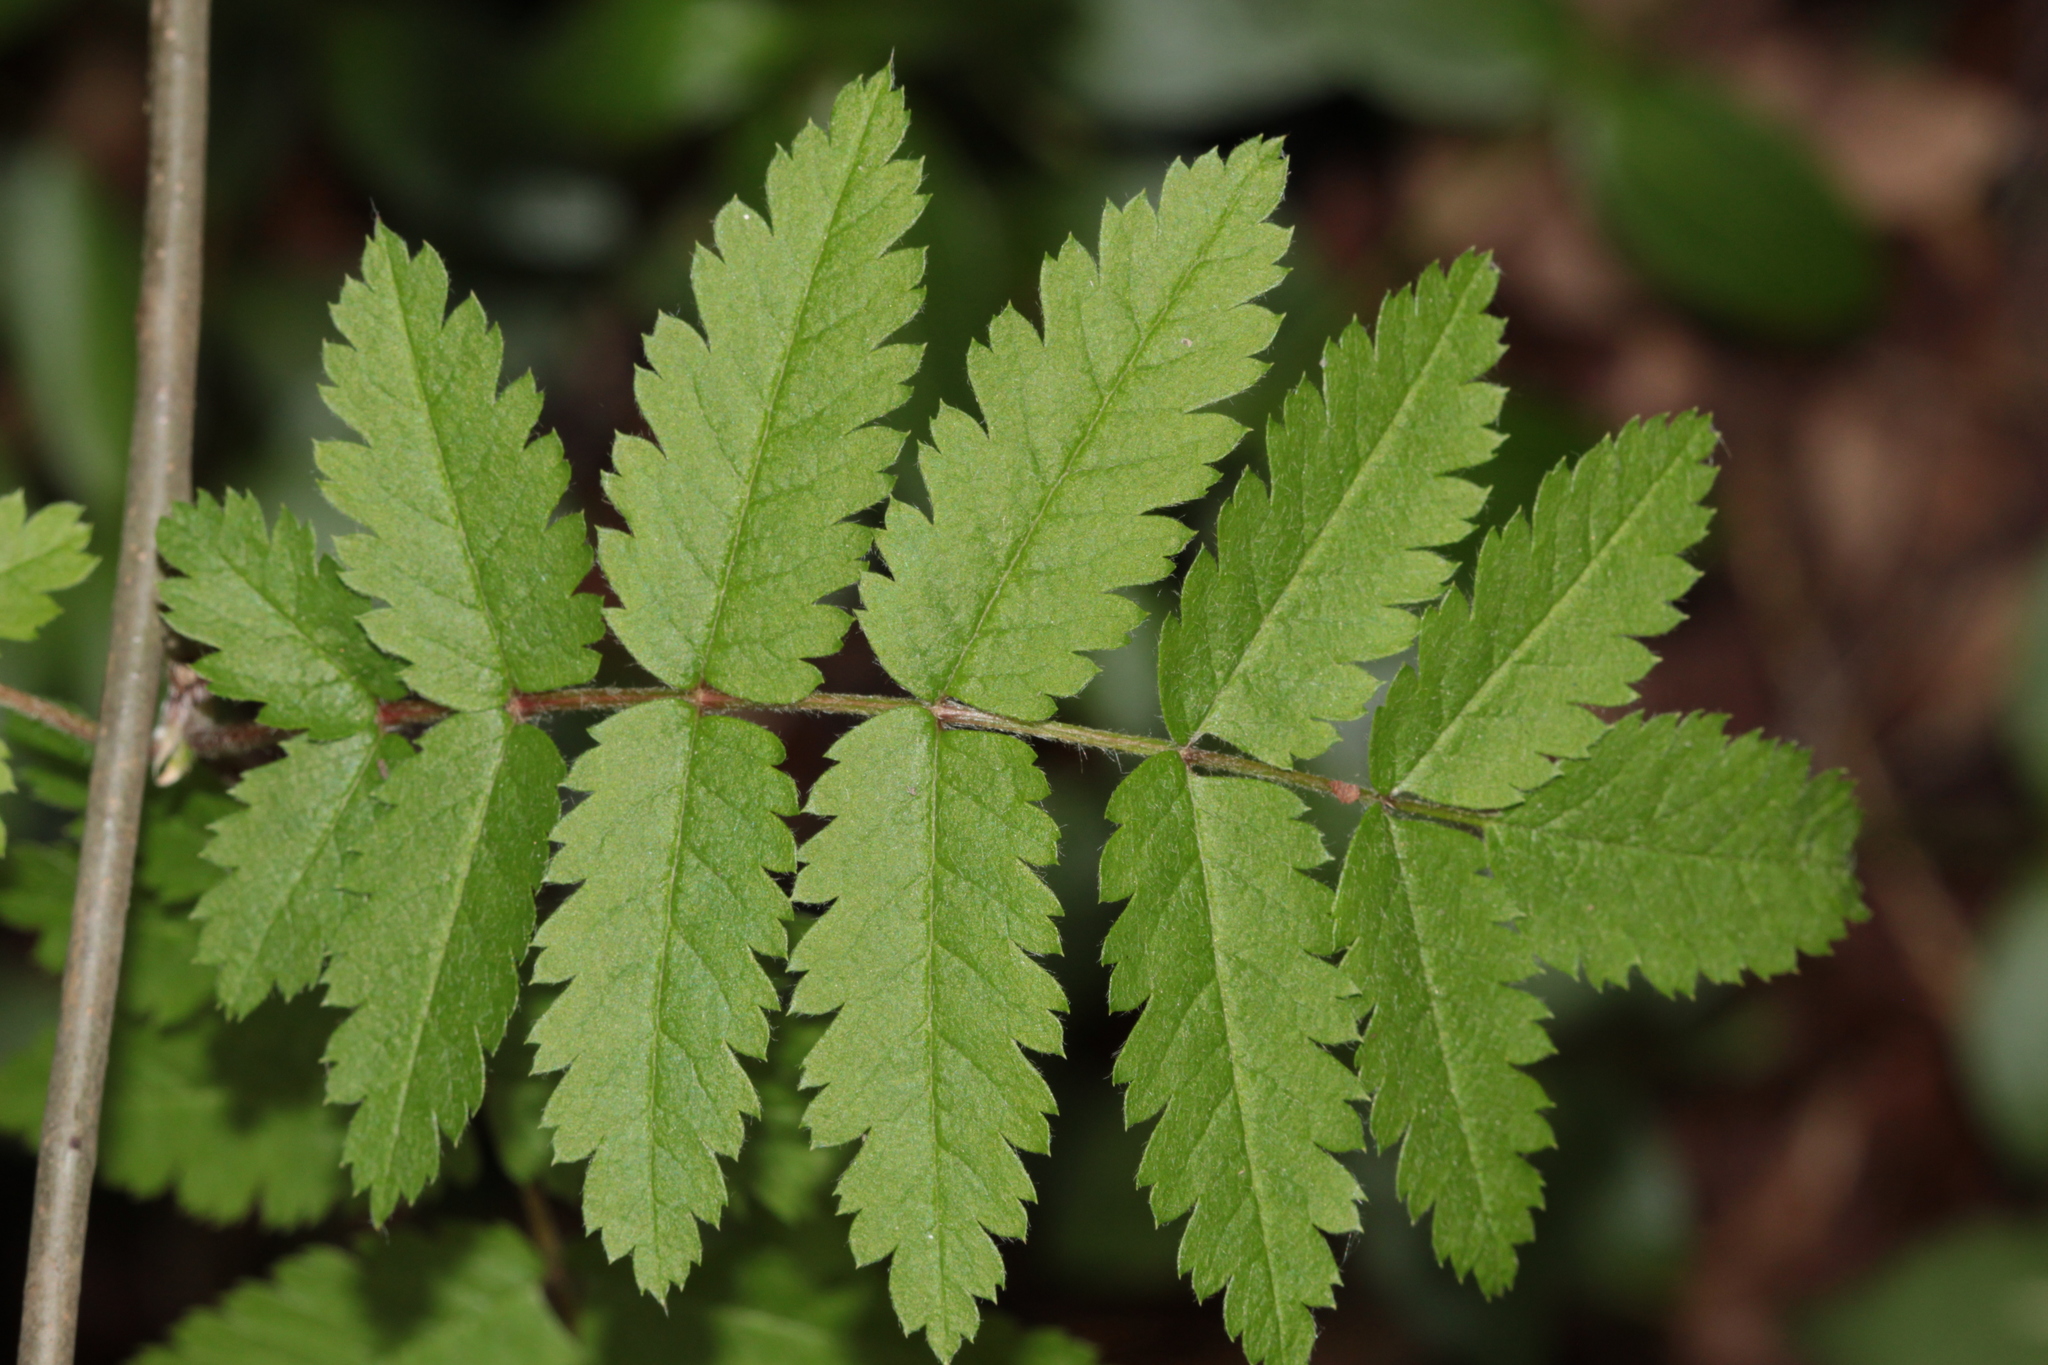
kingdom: Plantae
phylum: Tracheophyta
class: Magnoliopsida
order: Rosales
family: Rosaceae
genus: Sorbus
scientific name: Sorbus aucuparia
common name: Rowan
